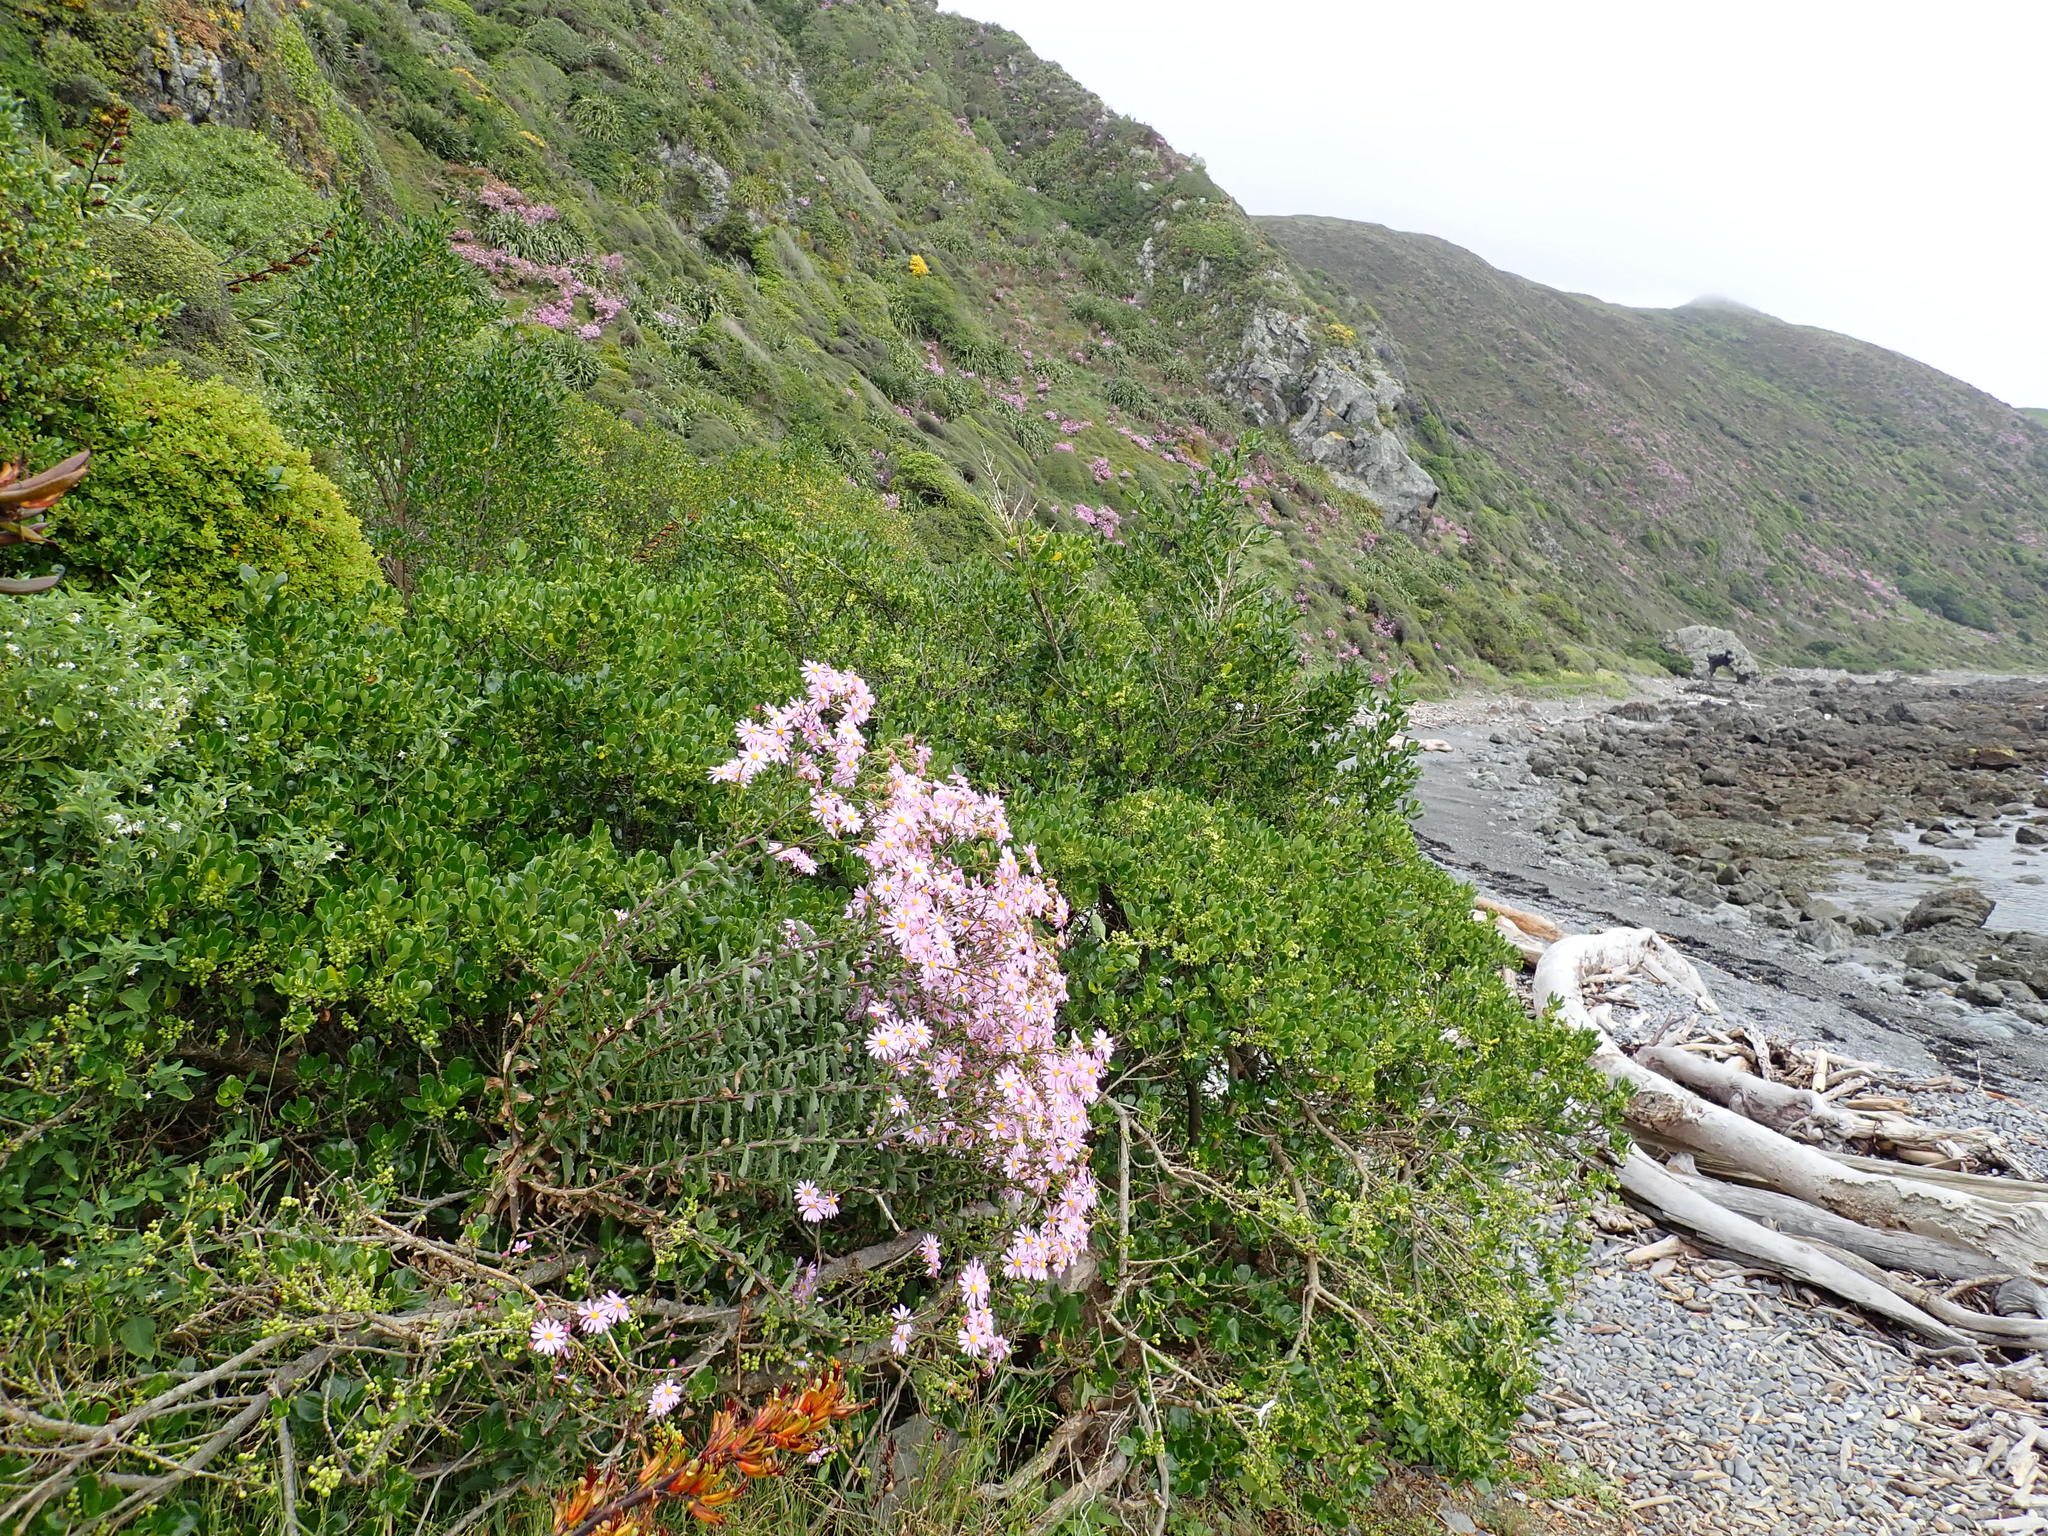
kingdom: Plantae
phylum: Tracheophyta
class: Magnoliopsida
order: Asterales
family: Asteraceae
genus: Senecio
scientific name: Senecio glastifolius
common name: Woad-leaved ragwort
